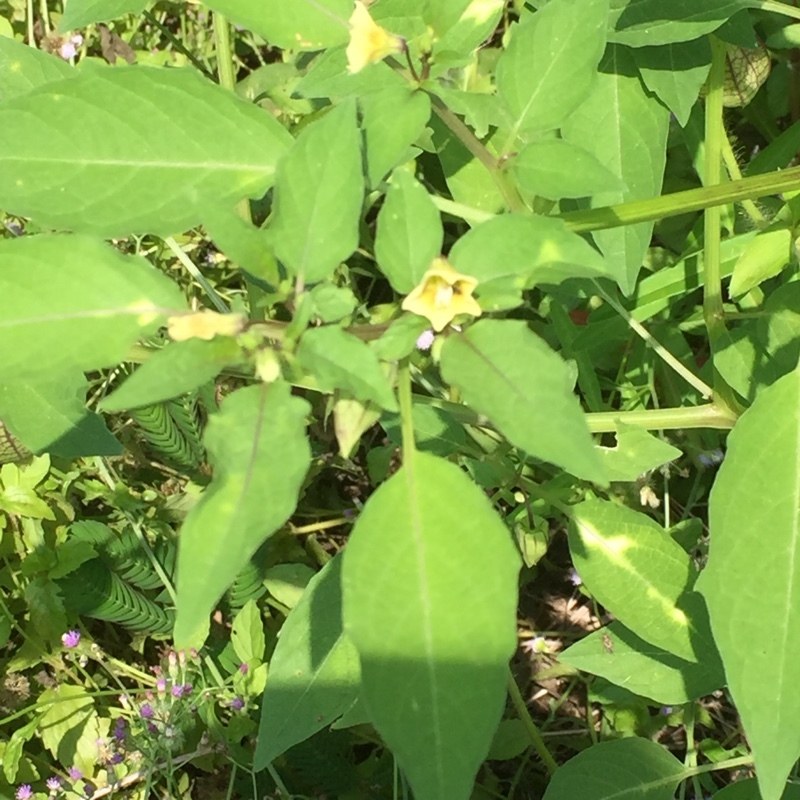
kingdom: Plantae
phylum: Tracheophyta
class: Magnoliopsida
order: Solanales
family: Solanaceae
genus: Physalis
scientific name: Physalis angulata
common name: Angular winter-cherry
